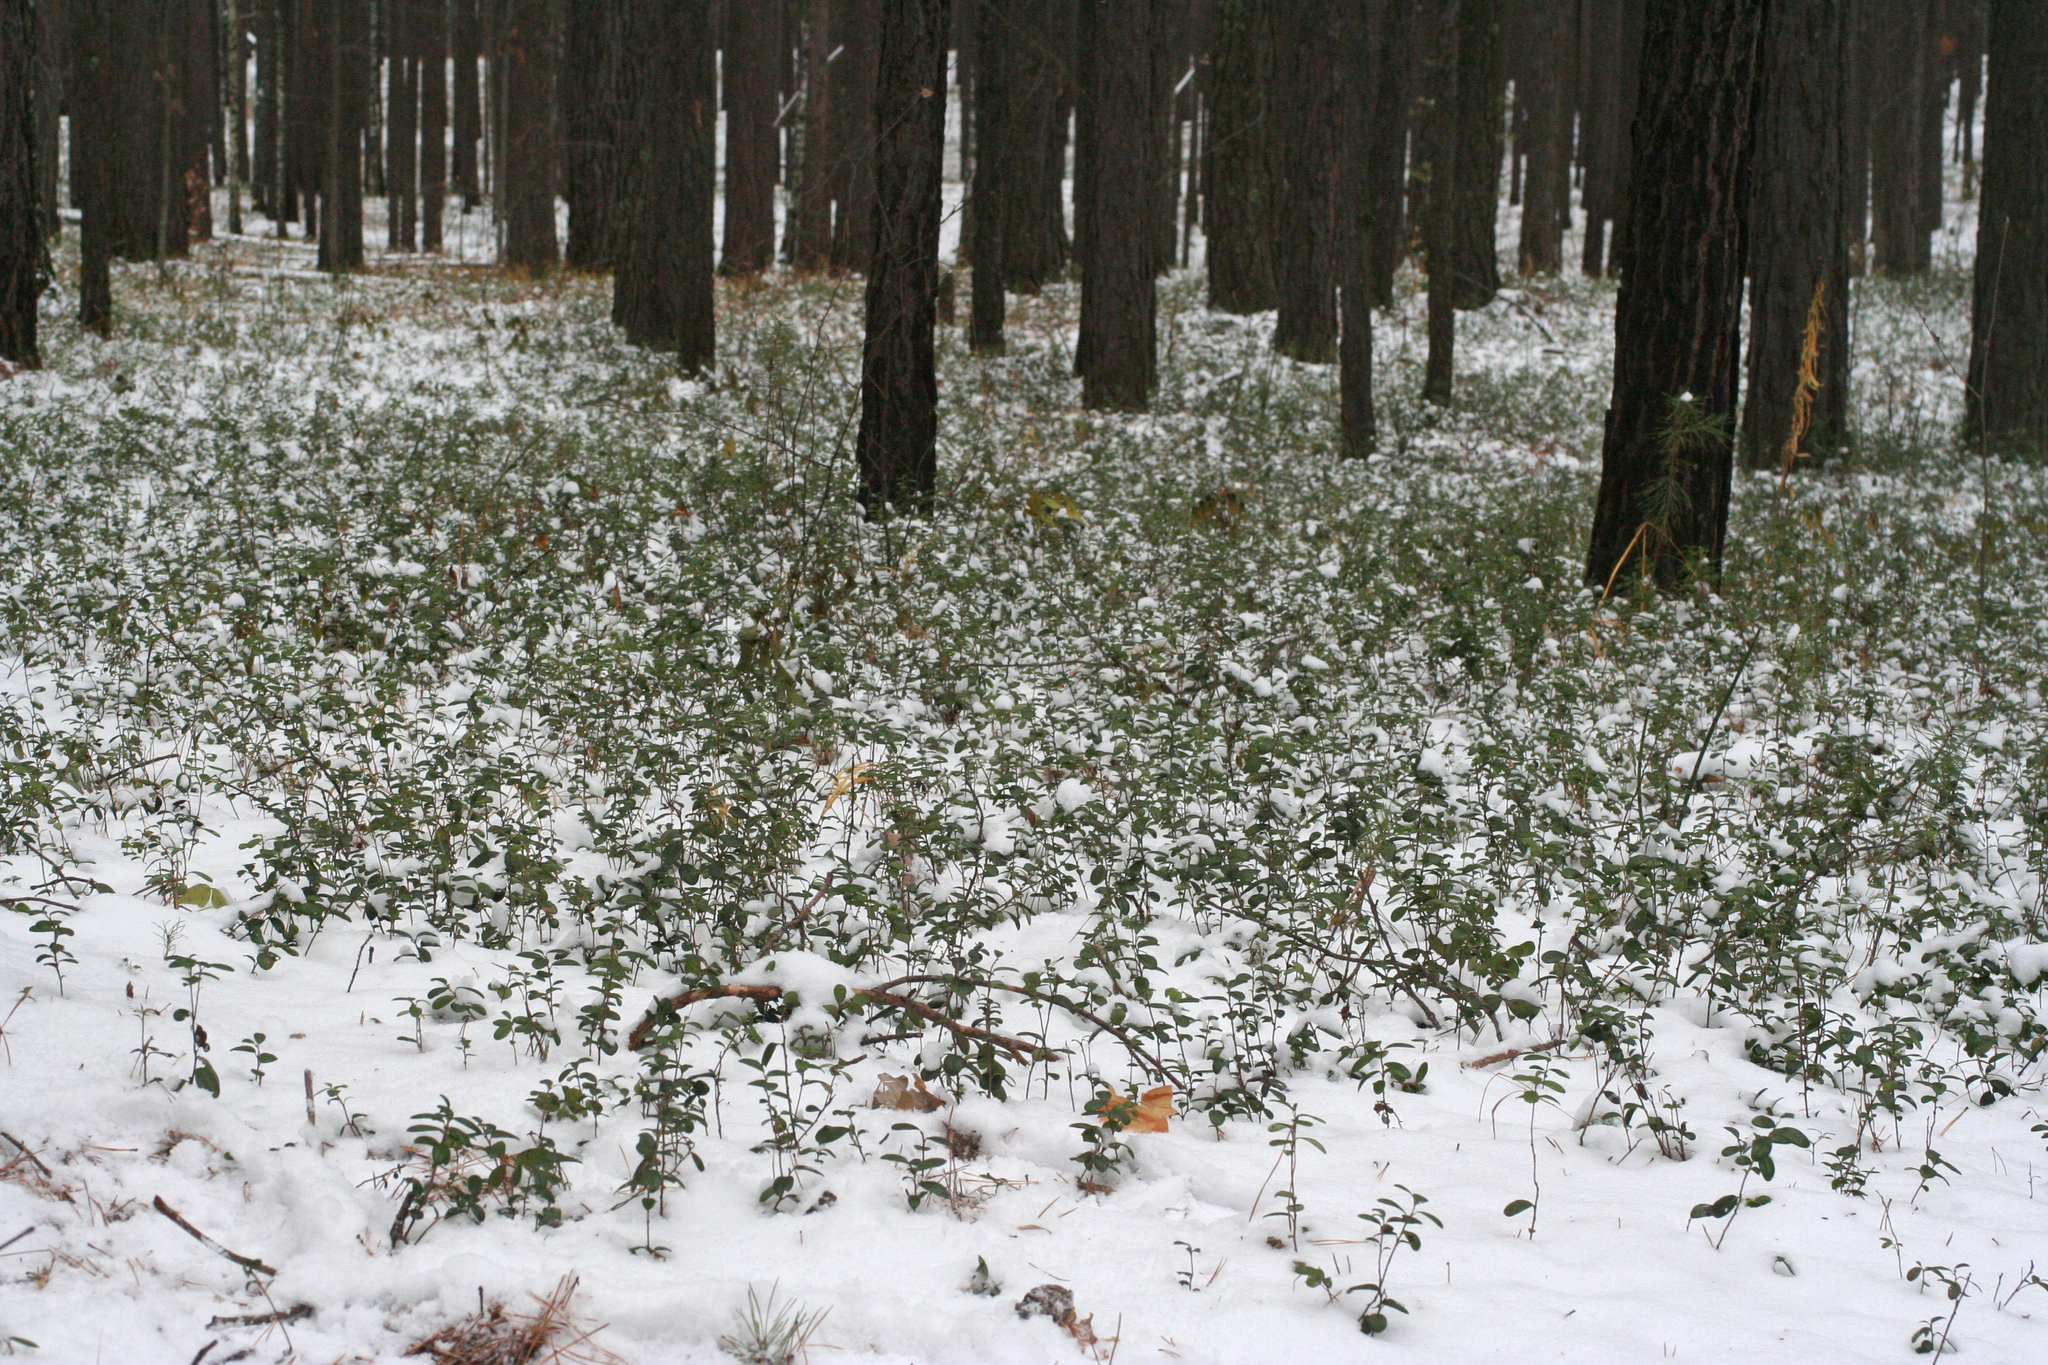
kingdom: Plantae
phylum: Tracheophyta
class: Magnoliopsida
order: Ericales
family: Ericaceae
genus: Vaccinium
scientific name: Vaccinium vitis-idaea
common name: Cowberry
